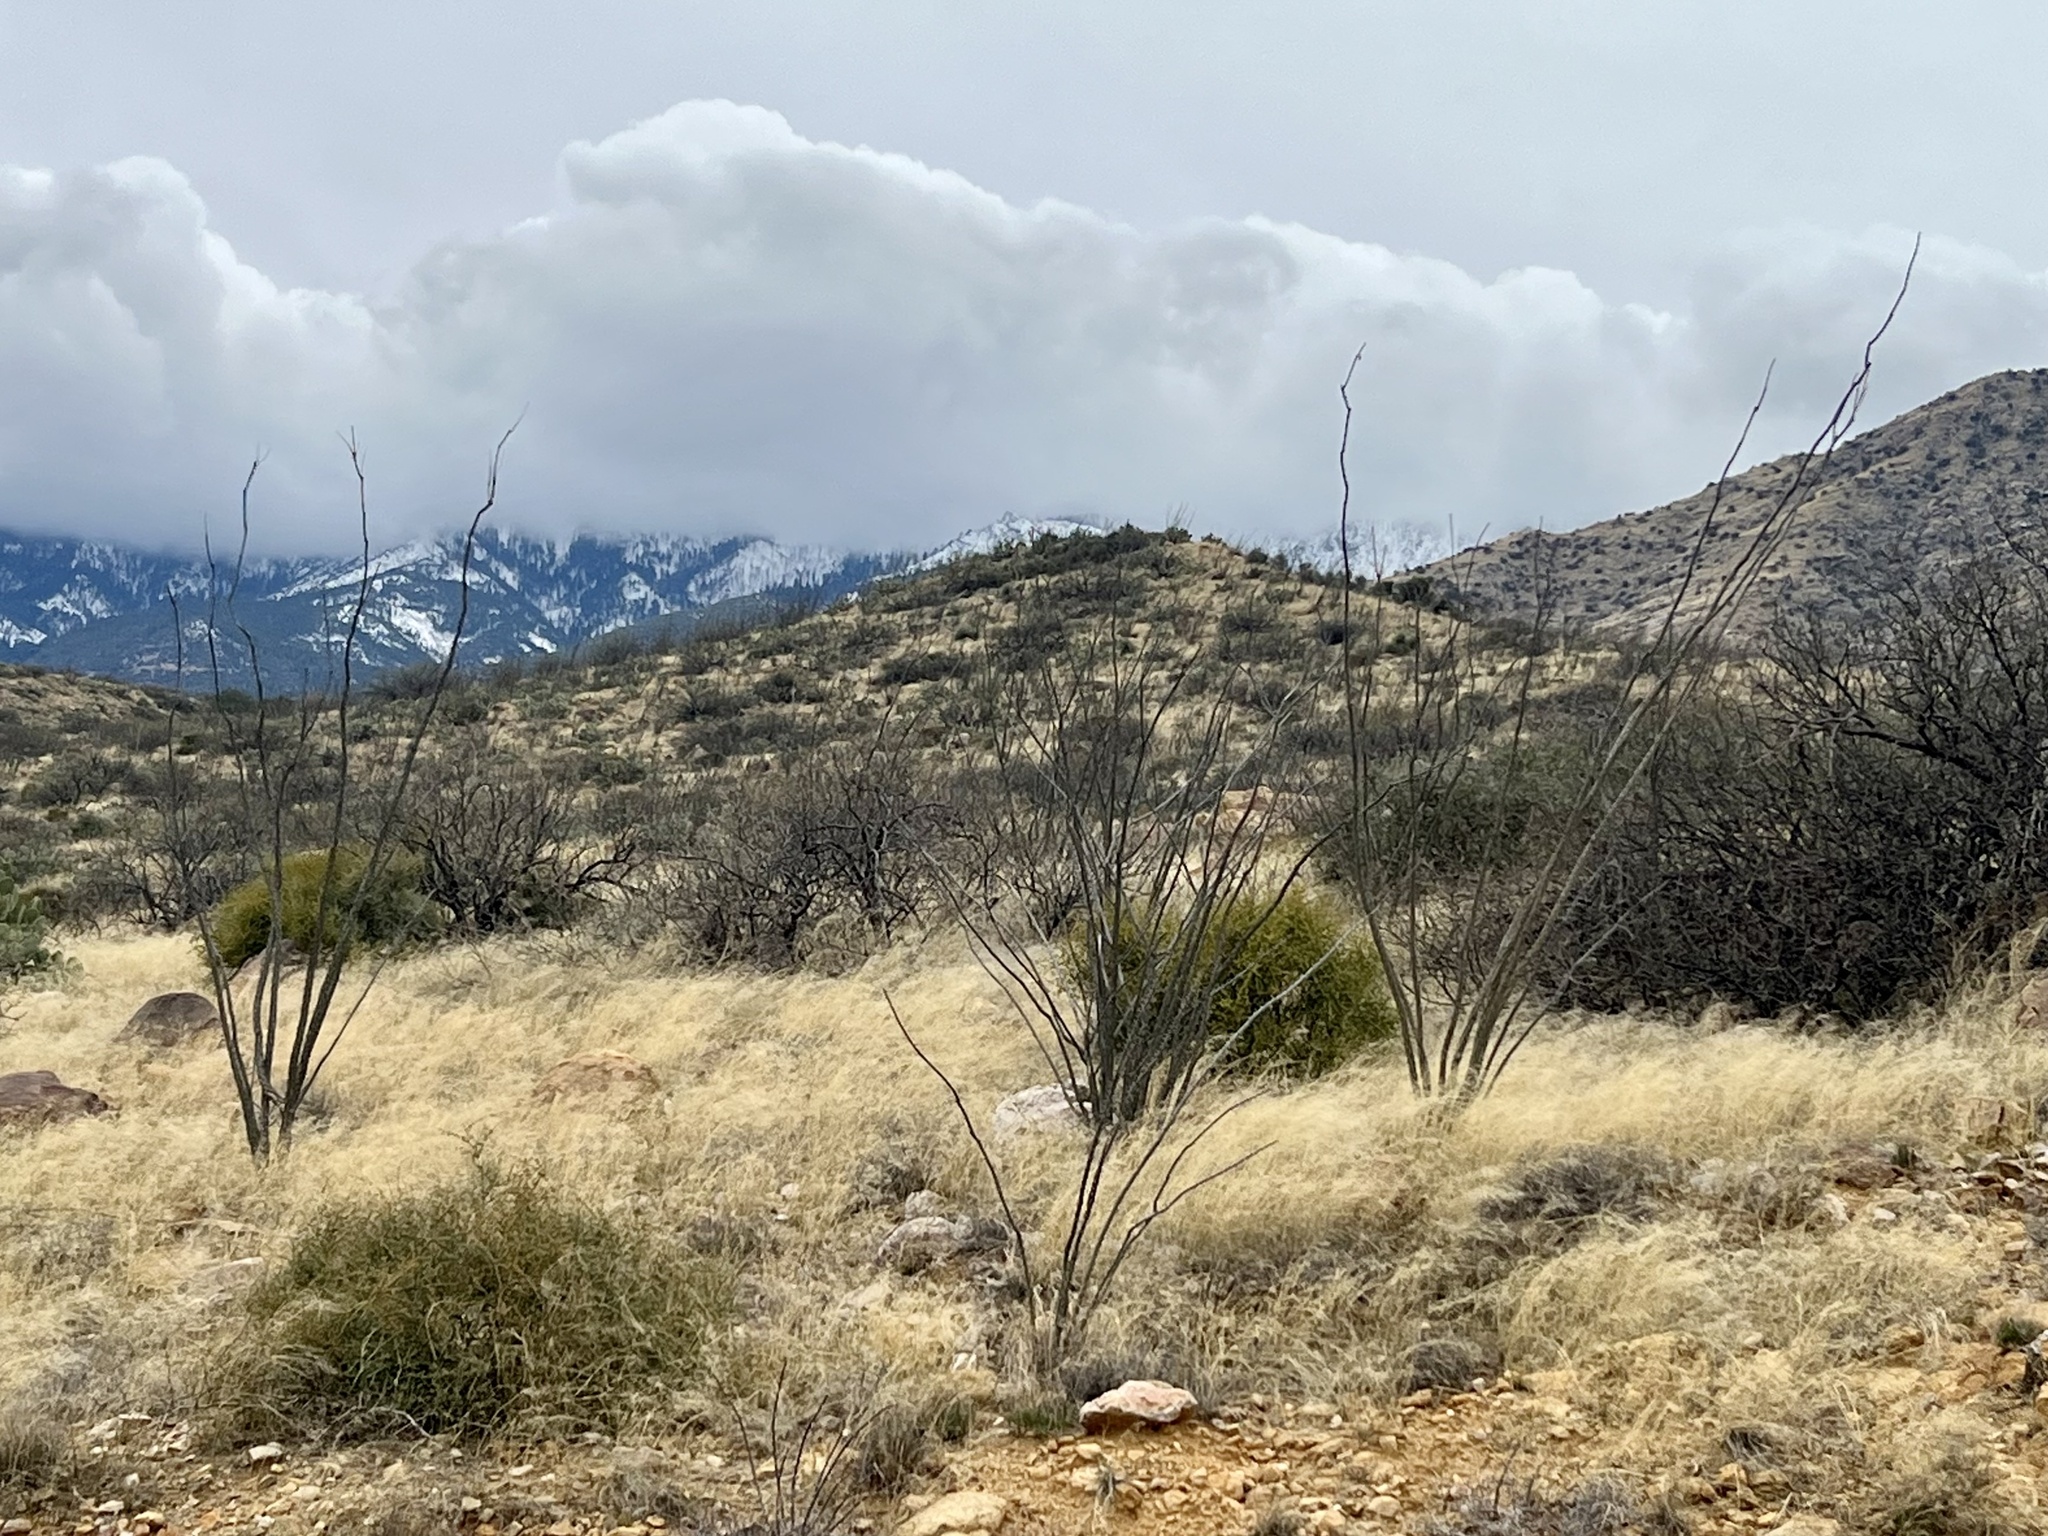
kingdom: Plantae
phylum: Tracheophyta
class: Magnoliopsida
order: Ericales
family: Fouquieriaceae
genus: Fouquieria
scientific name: Fouquieria splendens
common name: Vine-cactus
